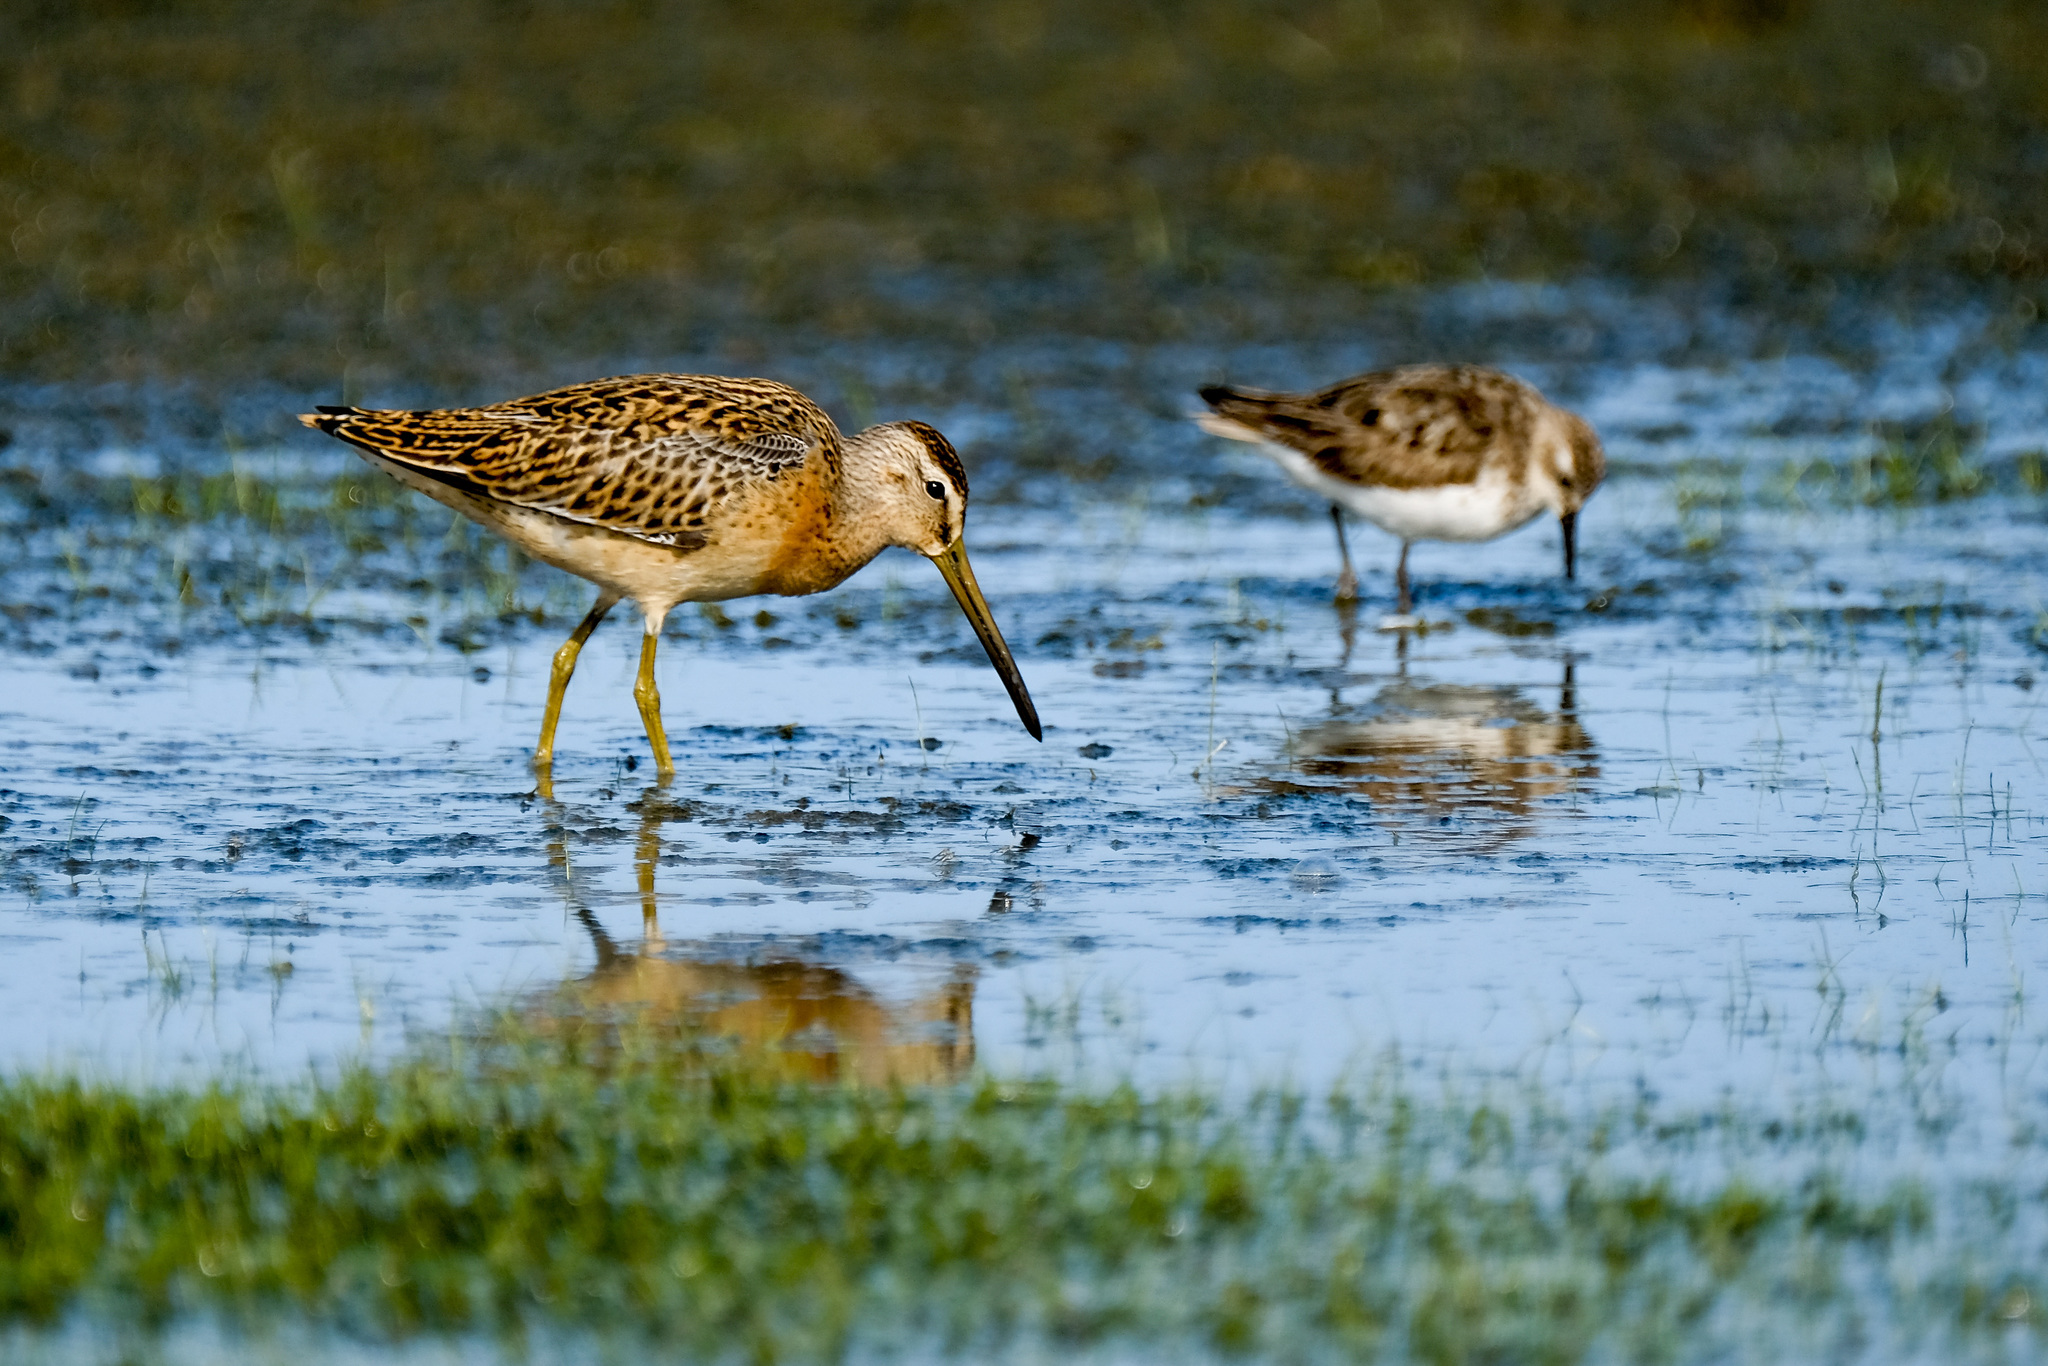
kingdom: Animalia
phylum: Chordata
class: Aves
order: Charadriiformes
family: Scolopacidae
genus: Calidris
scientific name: Calidris pusilla
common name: Semipalmated sandpiper
